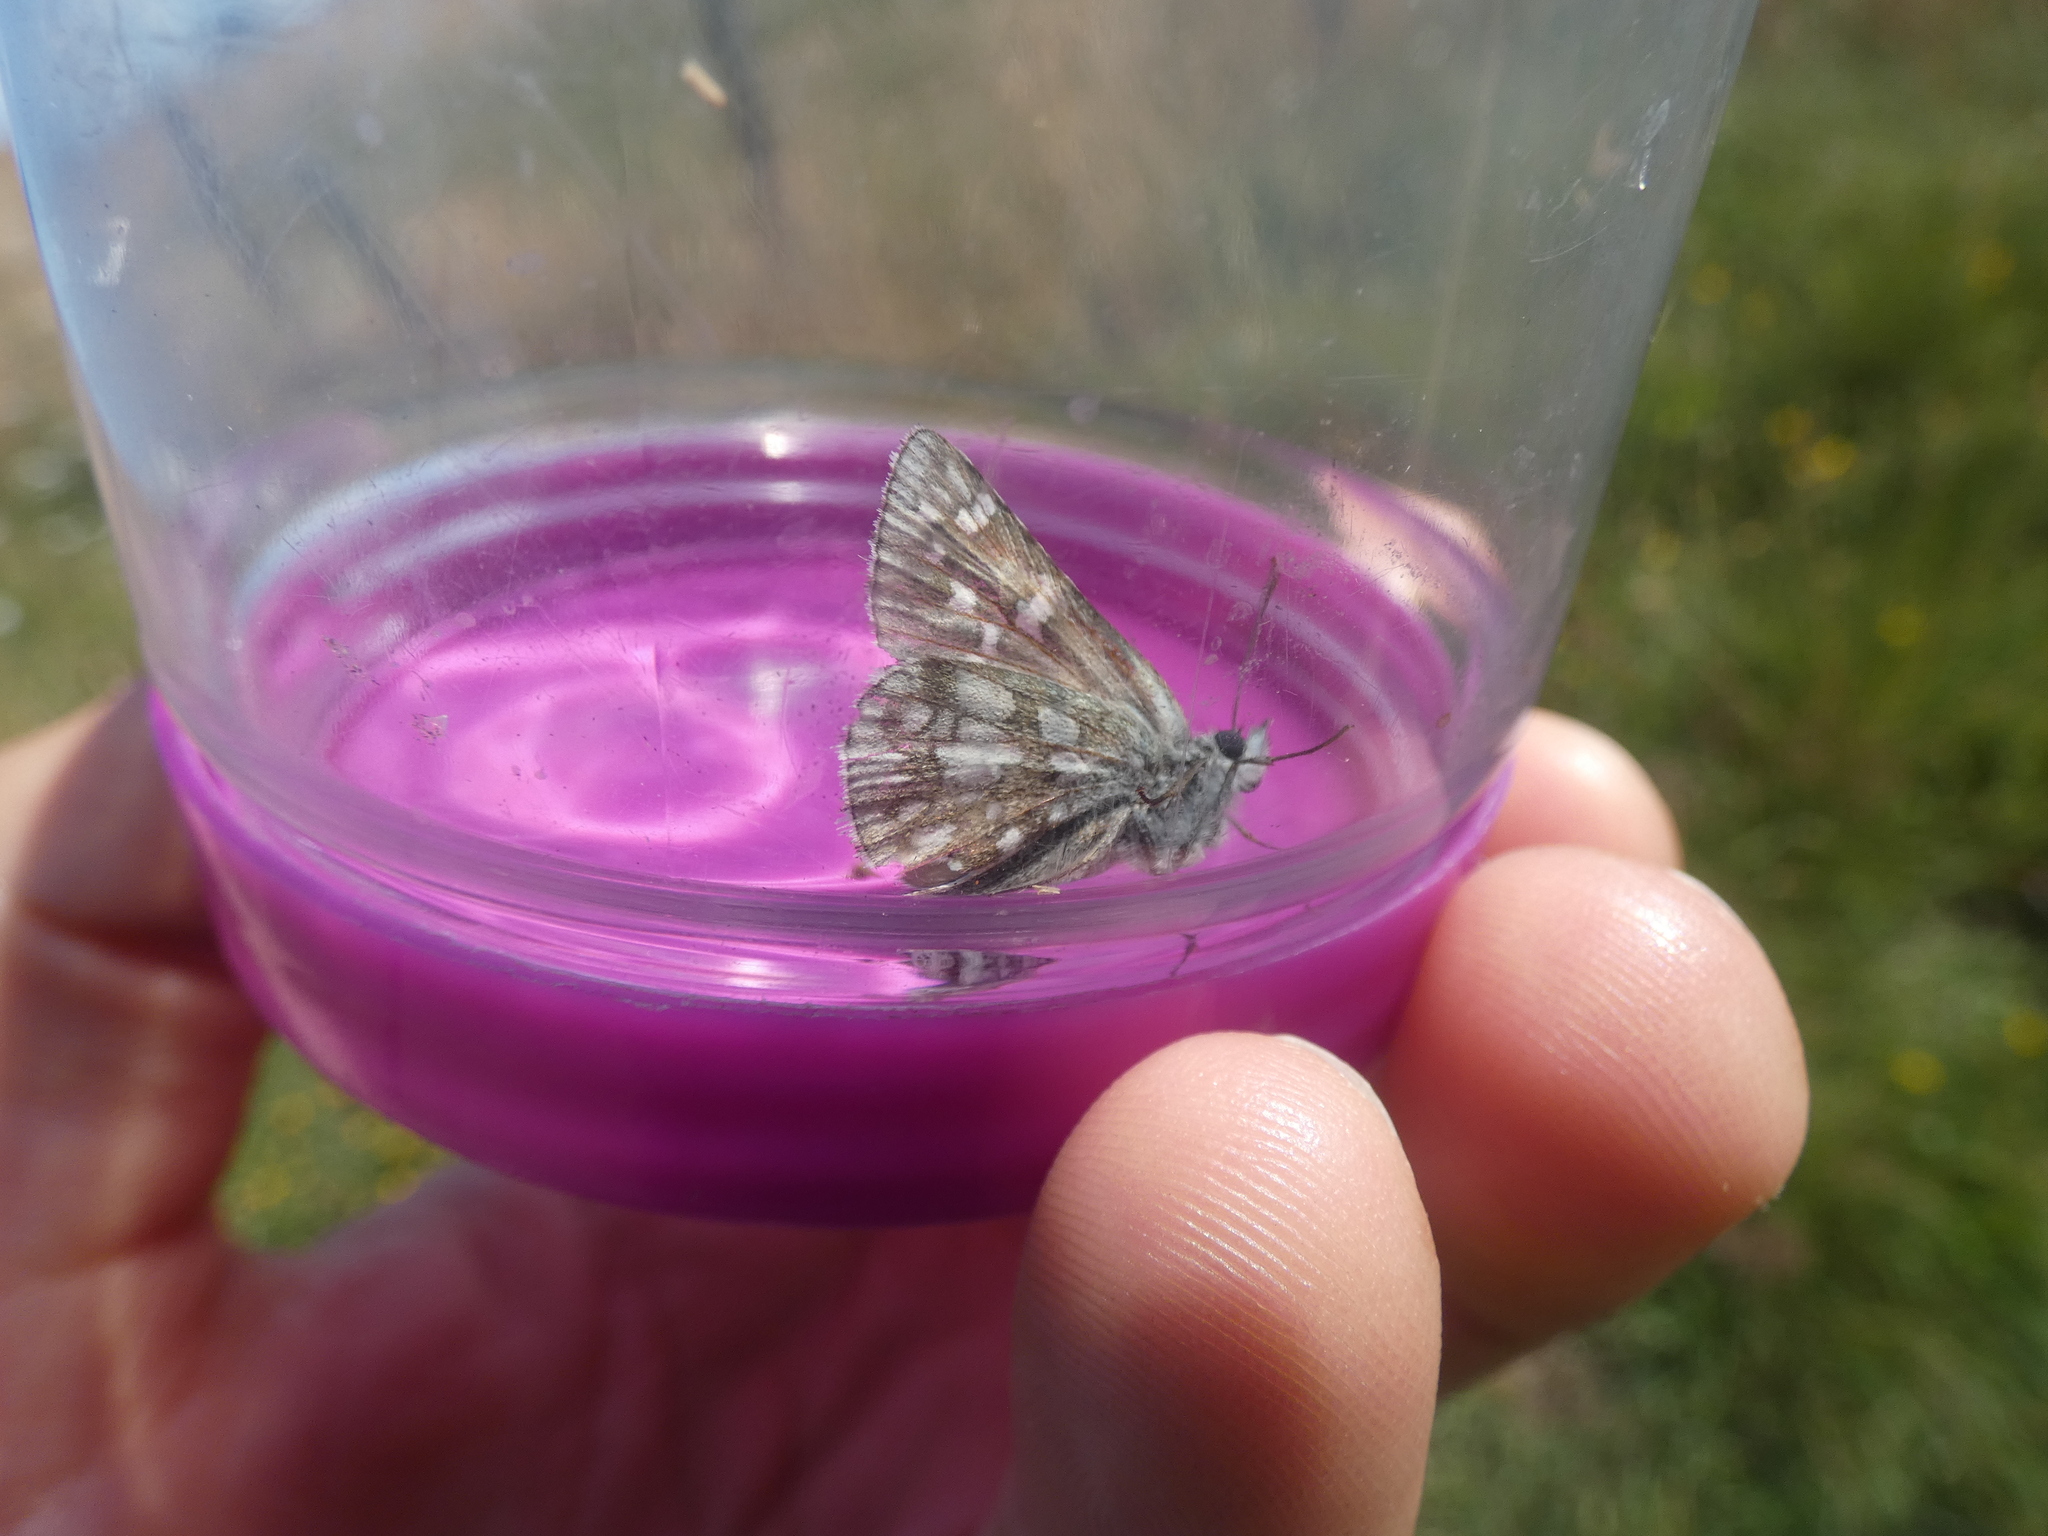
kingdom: Animalia
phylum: Arthropoda
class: Insecta
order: Lepidoptera
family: Hesperiidae
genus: Pyrgus
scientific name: Pyrgus fritillarius
